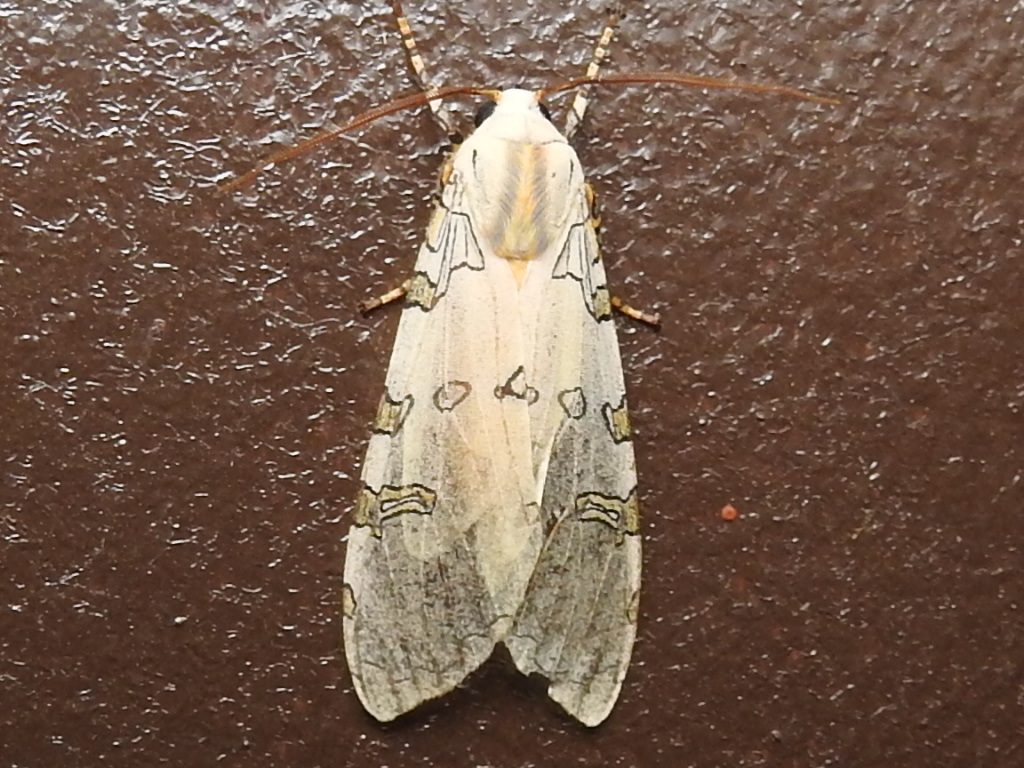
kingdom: Animalia
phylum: Arthropoda
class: Insecta
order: Lepidoptera
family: Erebidae
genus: Halysidota
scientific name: Halysidota davisii
